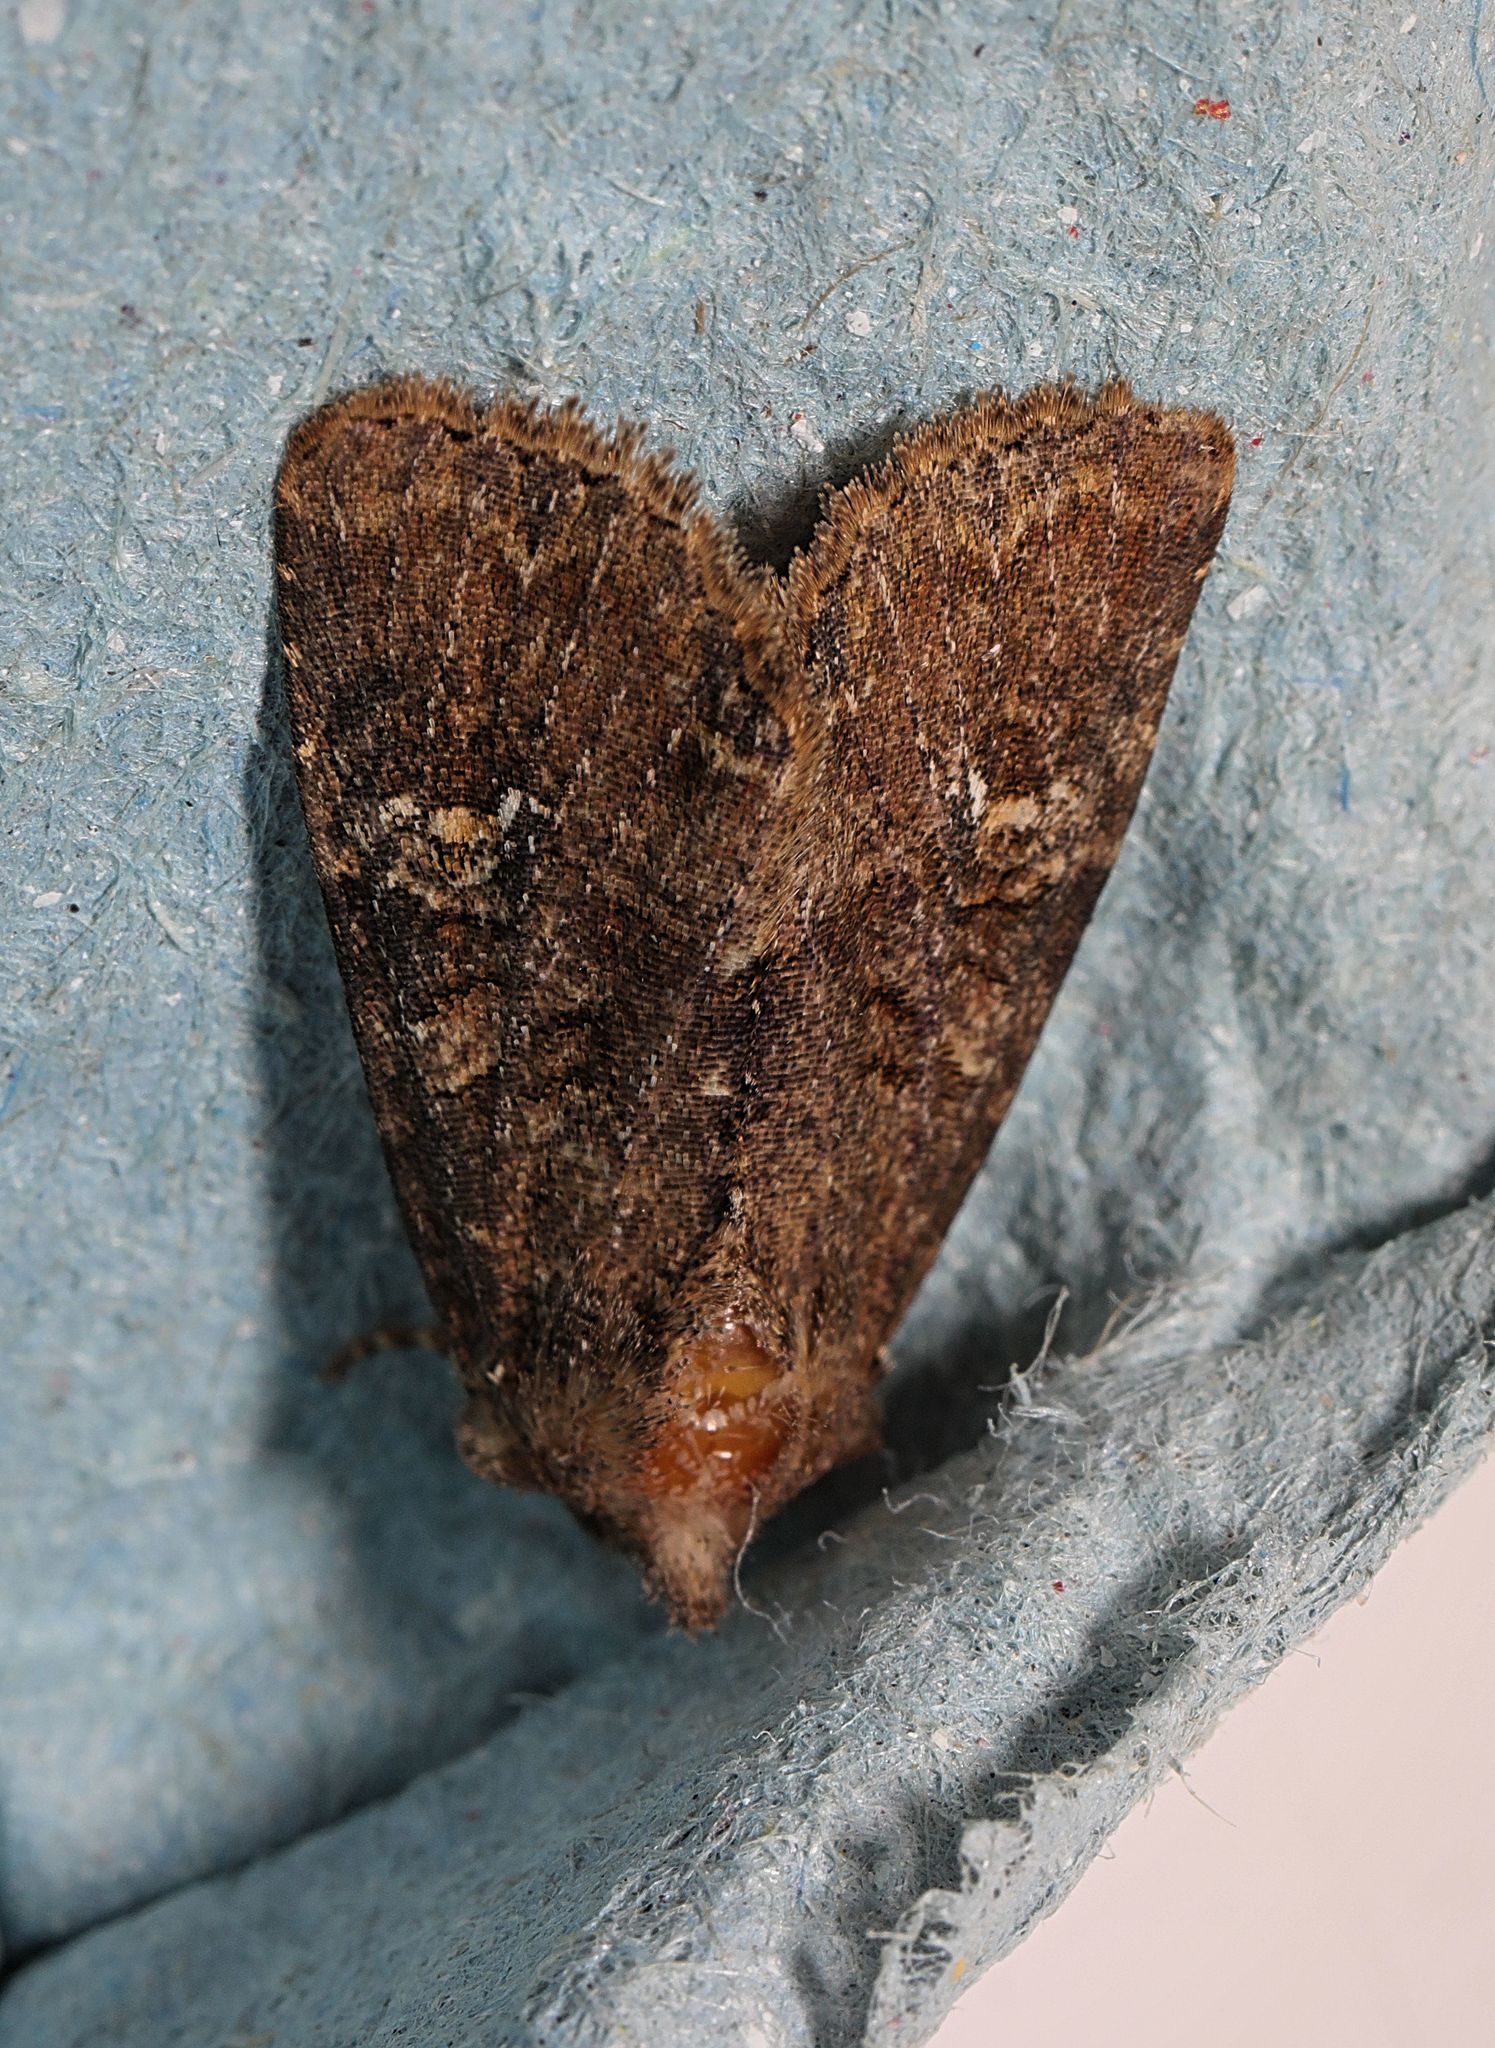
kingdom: Animalia
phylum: Arthropoda
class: Insecta
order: Lepidoptera
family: Noctuidae
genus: Mesapamea
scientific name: Mesapamea
